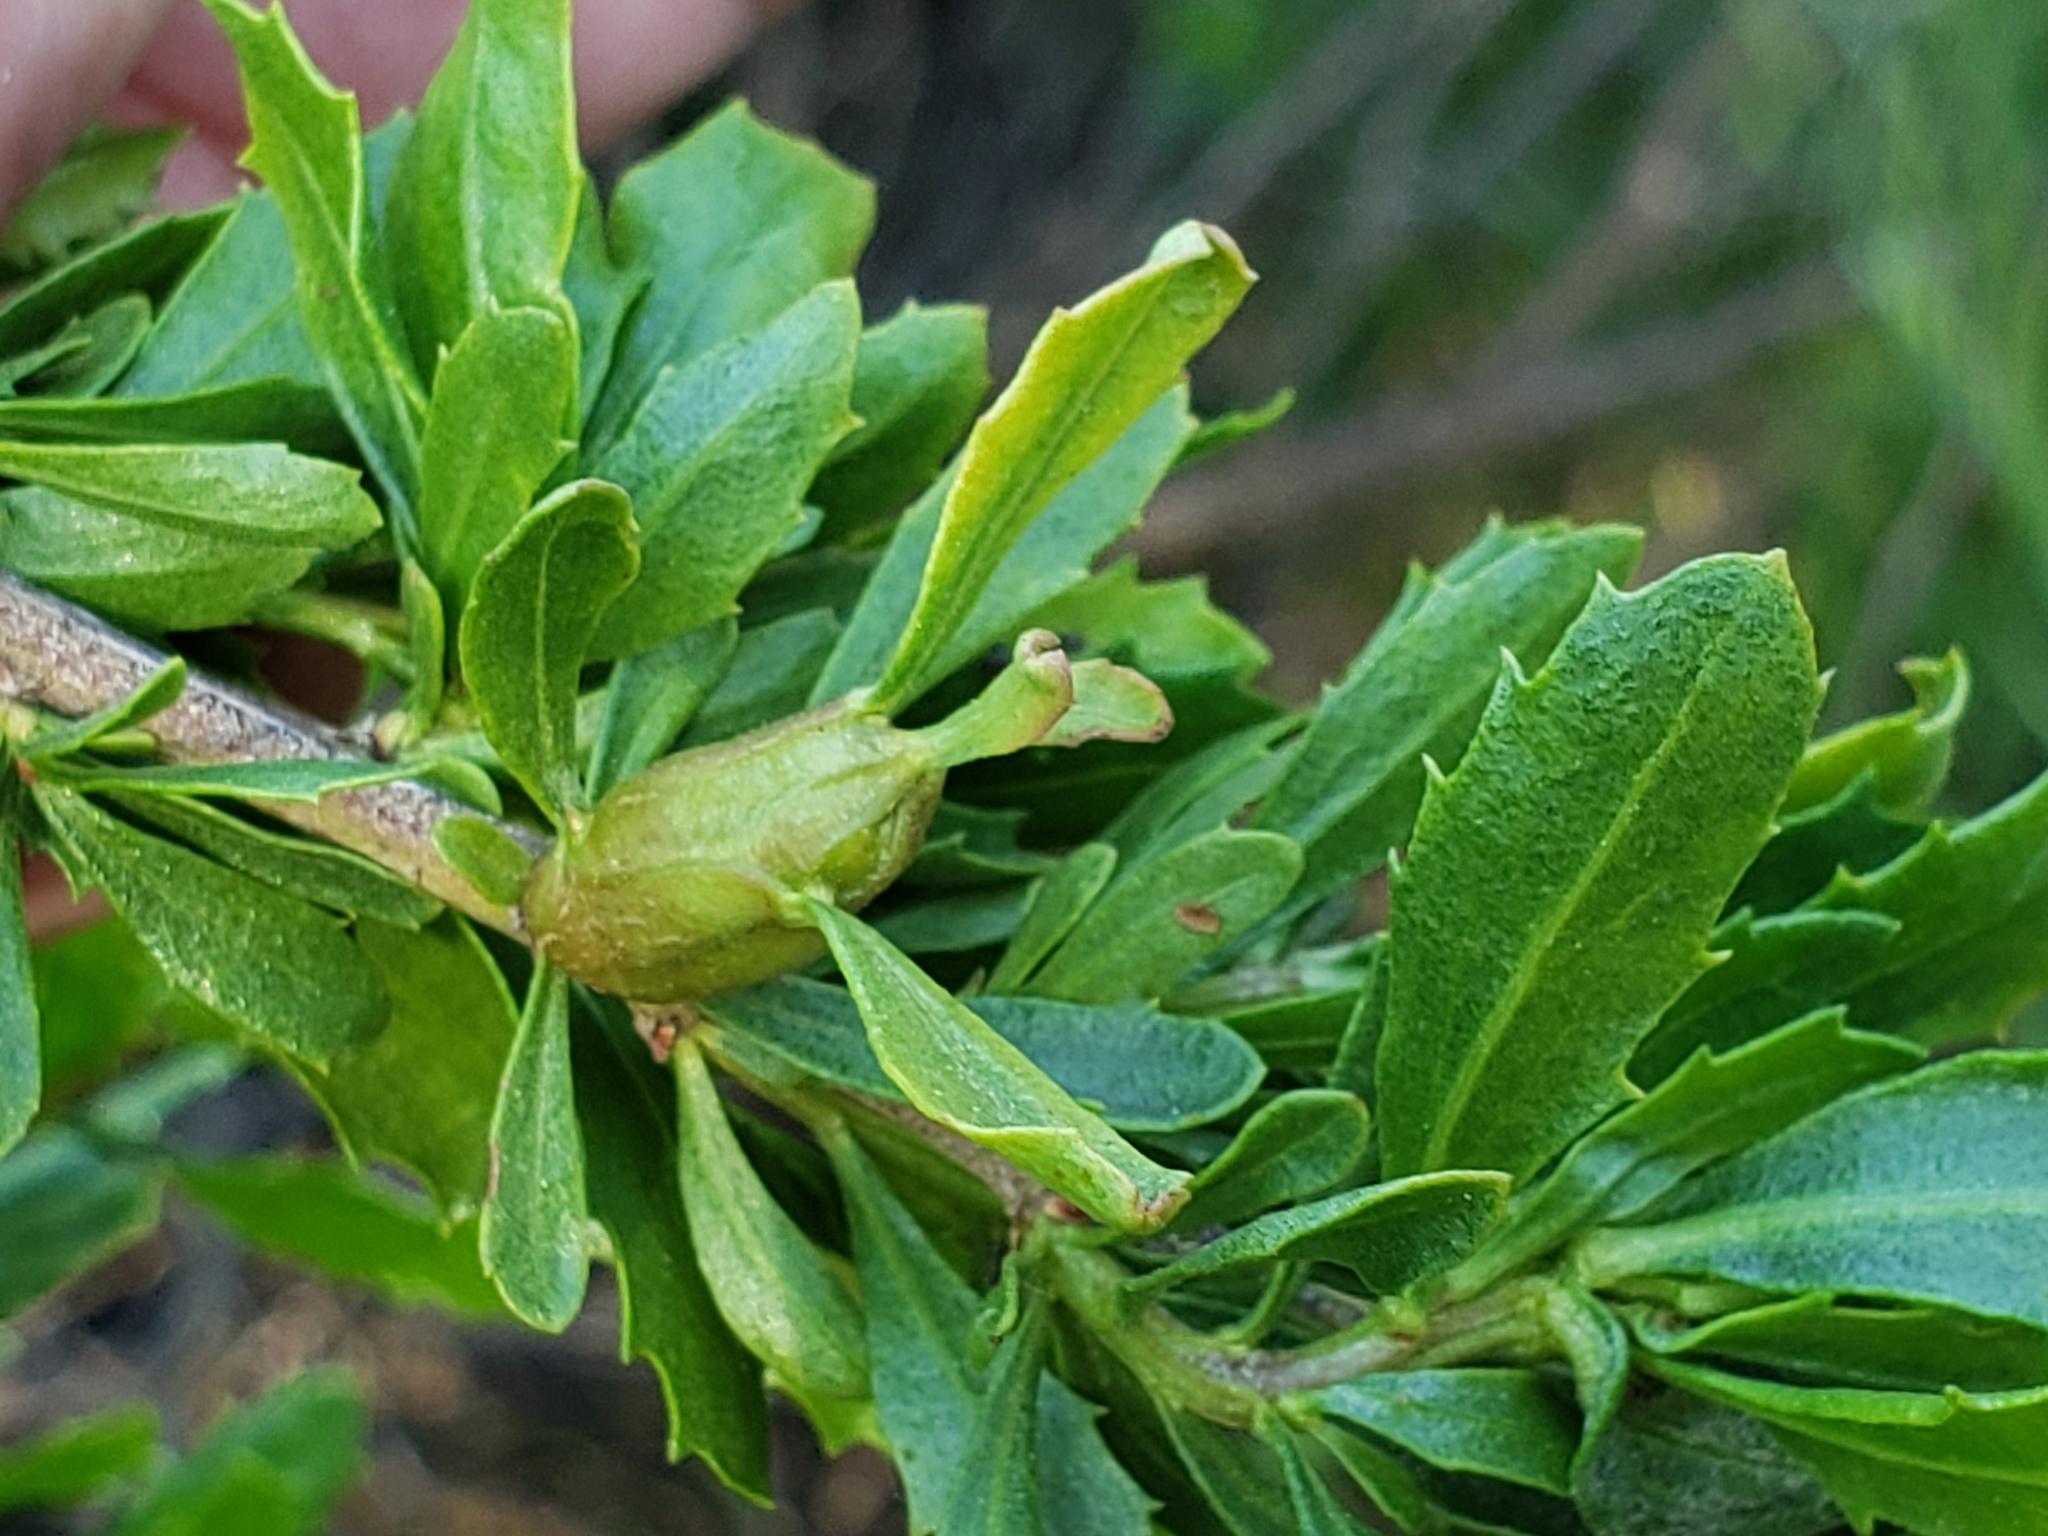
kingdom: Animalia
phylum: Arthropoda
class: Insecta
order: Lepidoptera
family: Gelechiidae
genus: Gnorimoschema
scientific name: Gnorimoschema baccharisella
